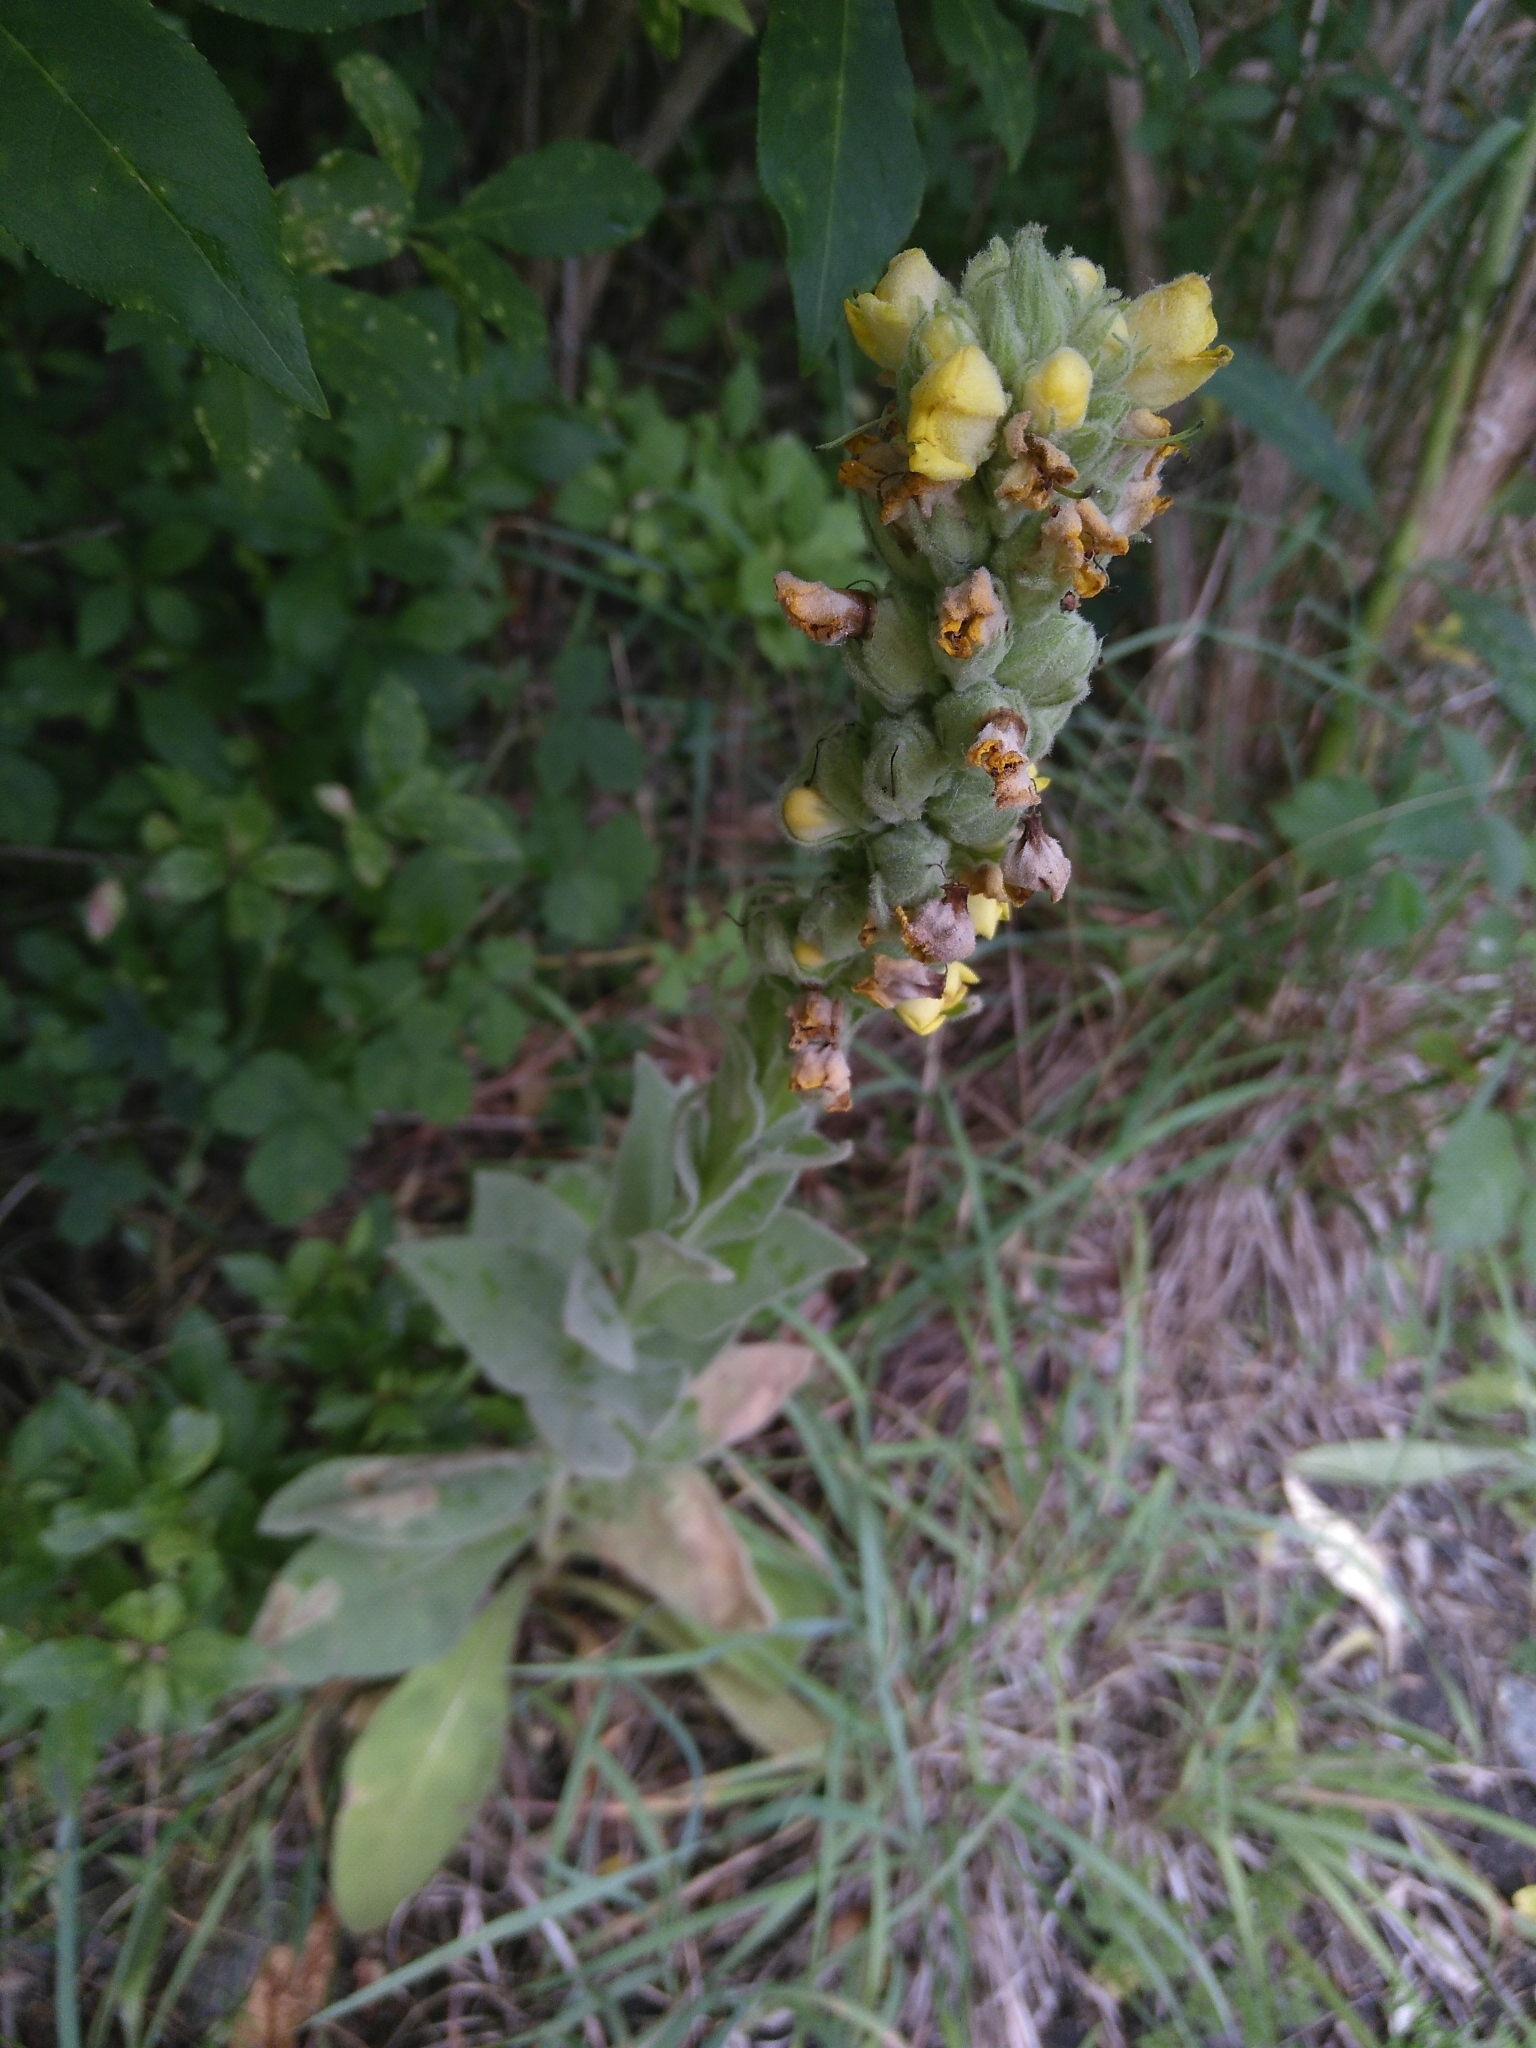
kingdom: Plantae
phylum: Tracheophyta
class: Magnoliopsida
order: Lamiales
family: Scrophulariaceae
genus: Verbascum
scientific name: Verbascum thapsus
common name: Common mullein
